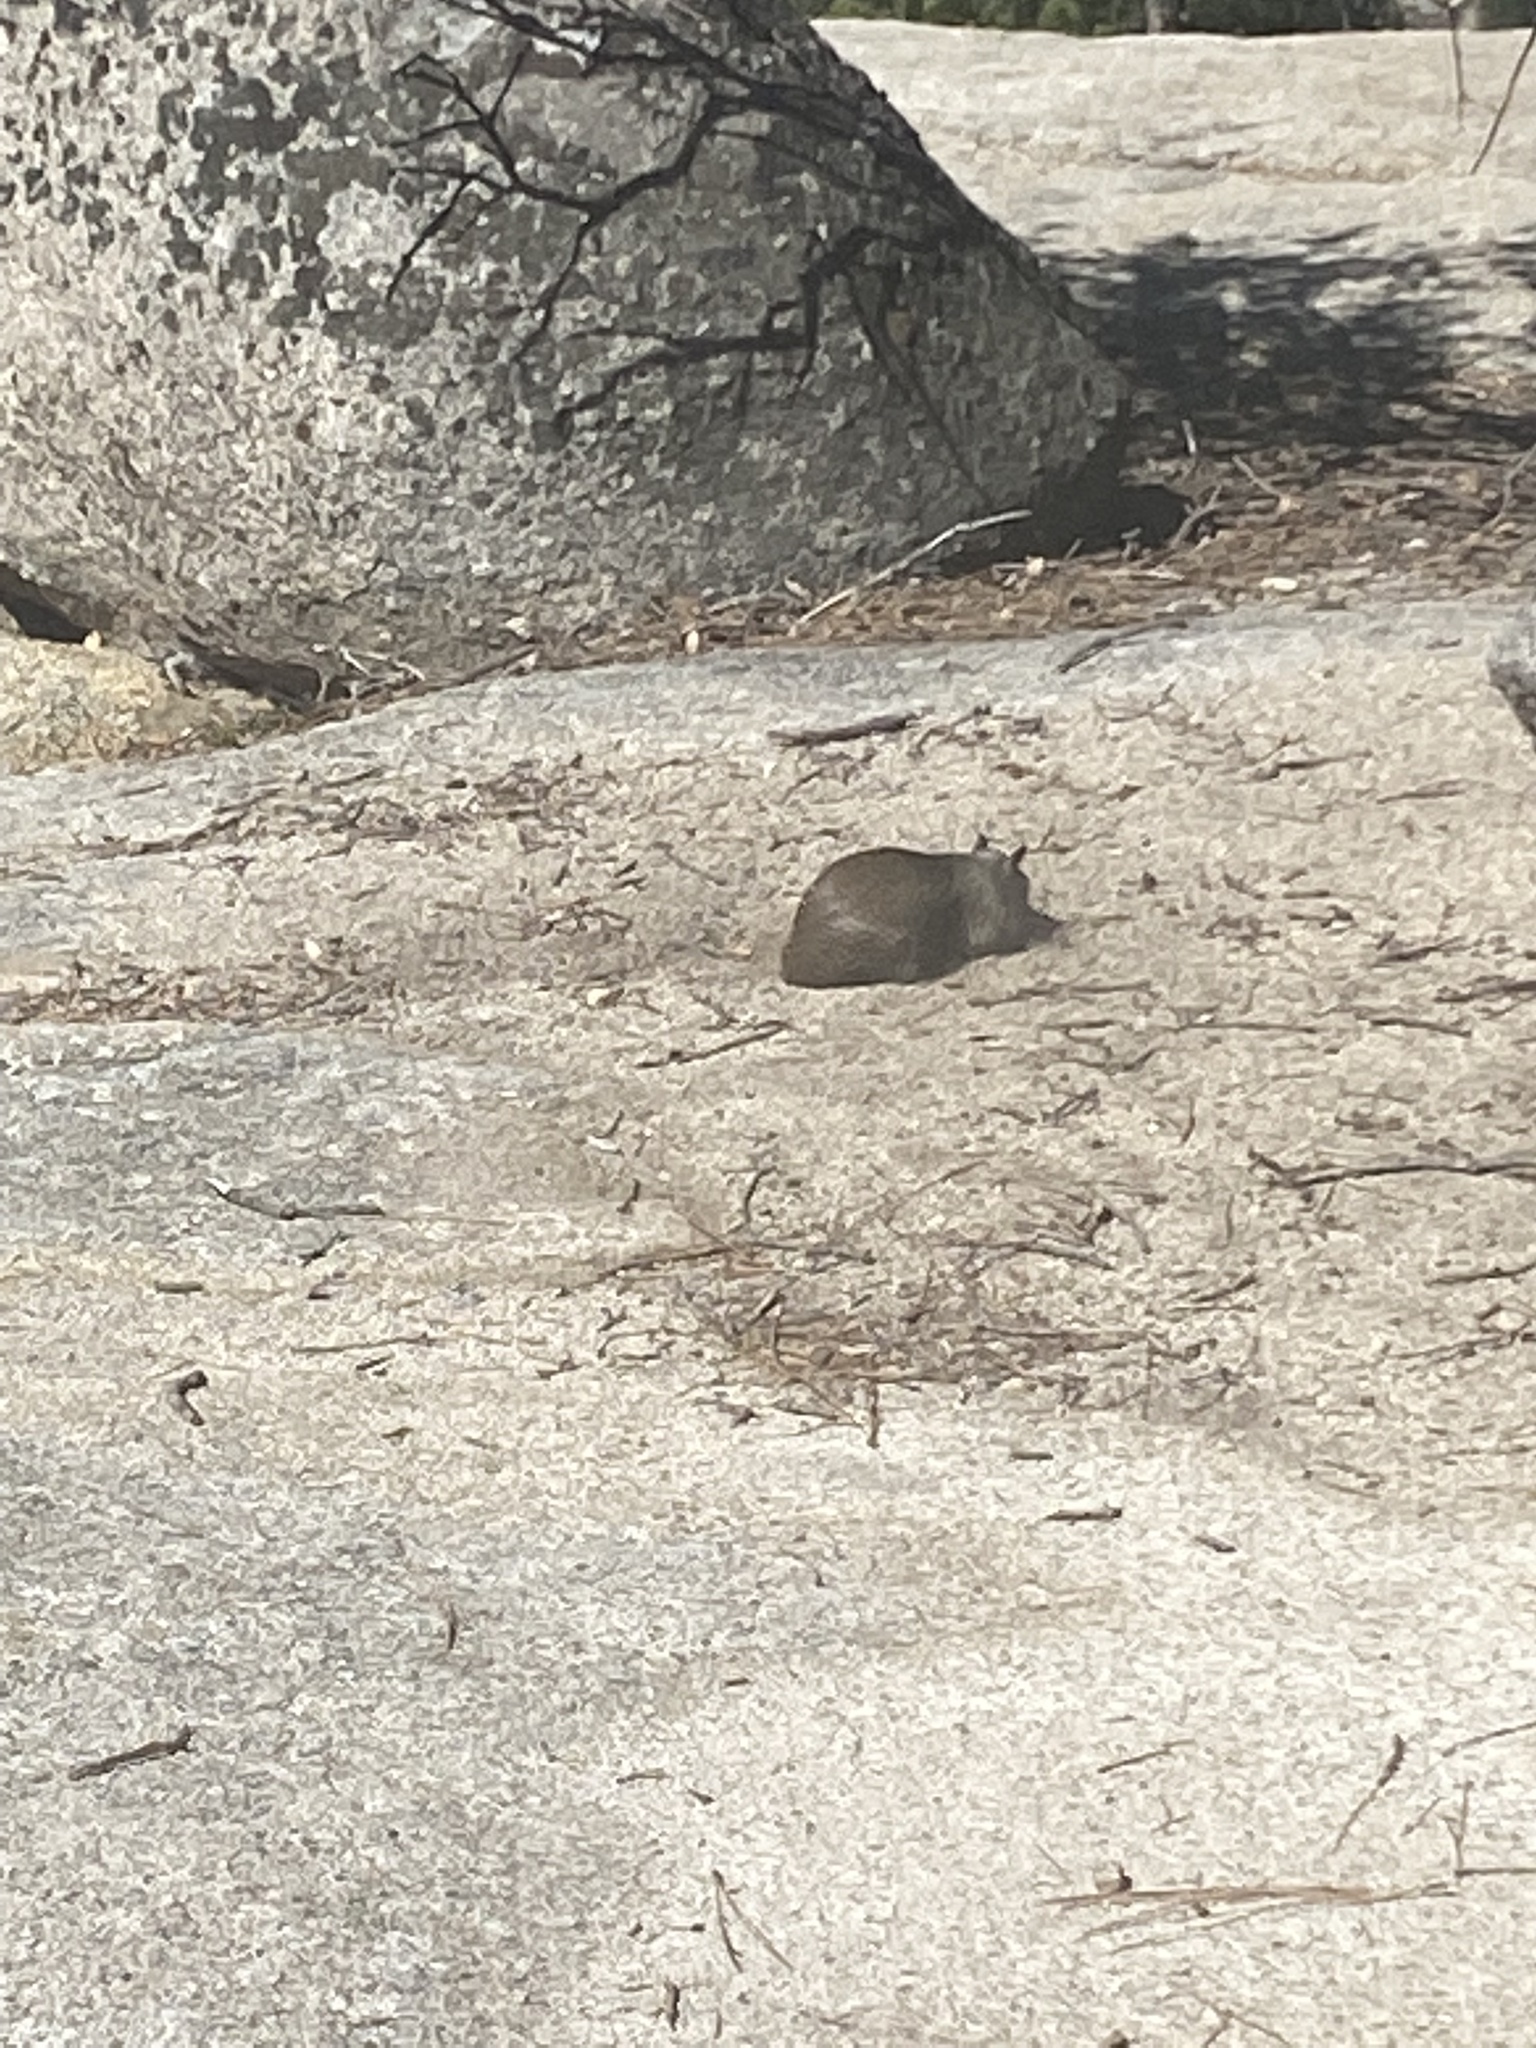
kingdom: Animalia
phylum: Chordata
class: Mammalia
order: Rodentia
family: Sciuridae
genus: Otospermophilus
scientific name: Otospermophilus beecheyi
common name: California ground squirrel
